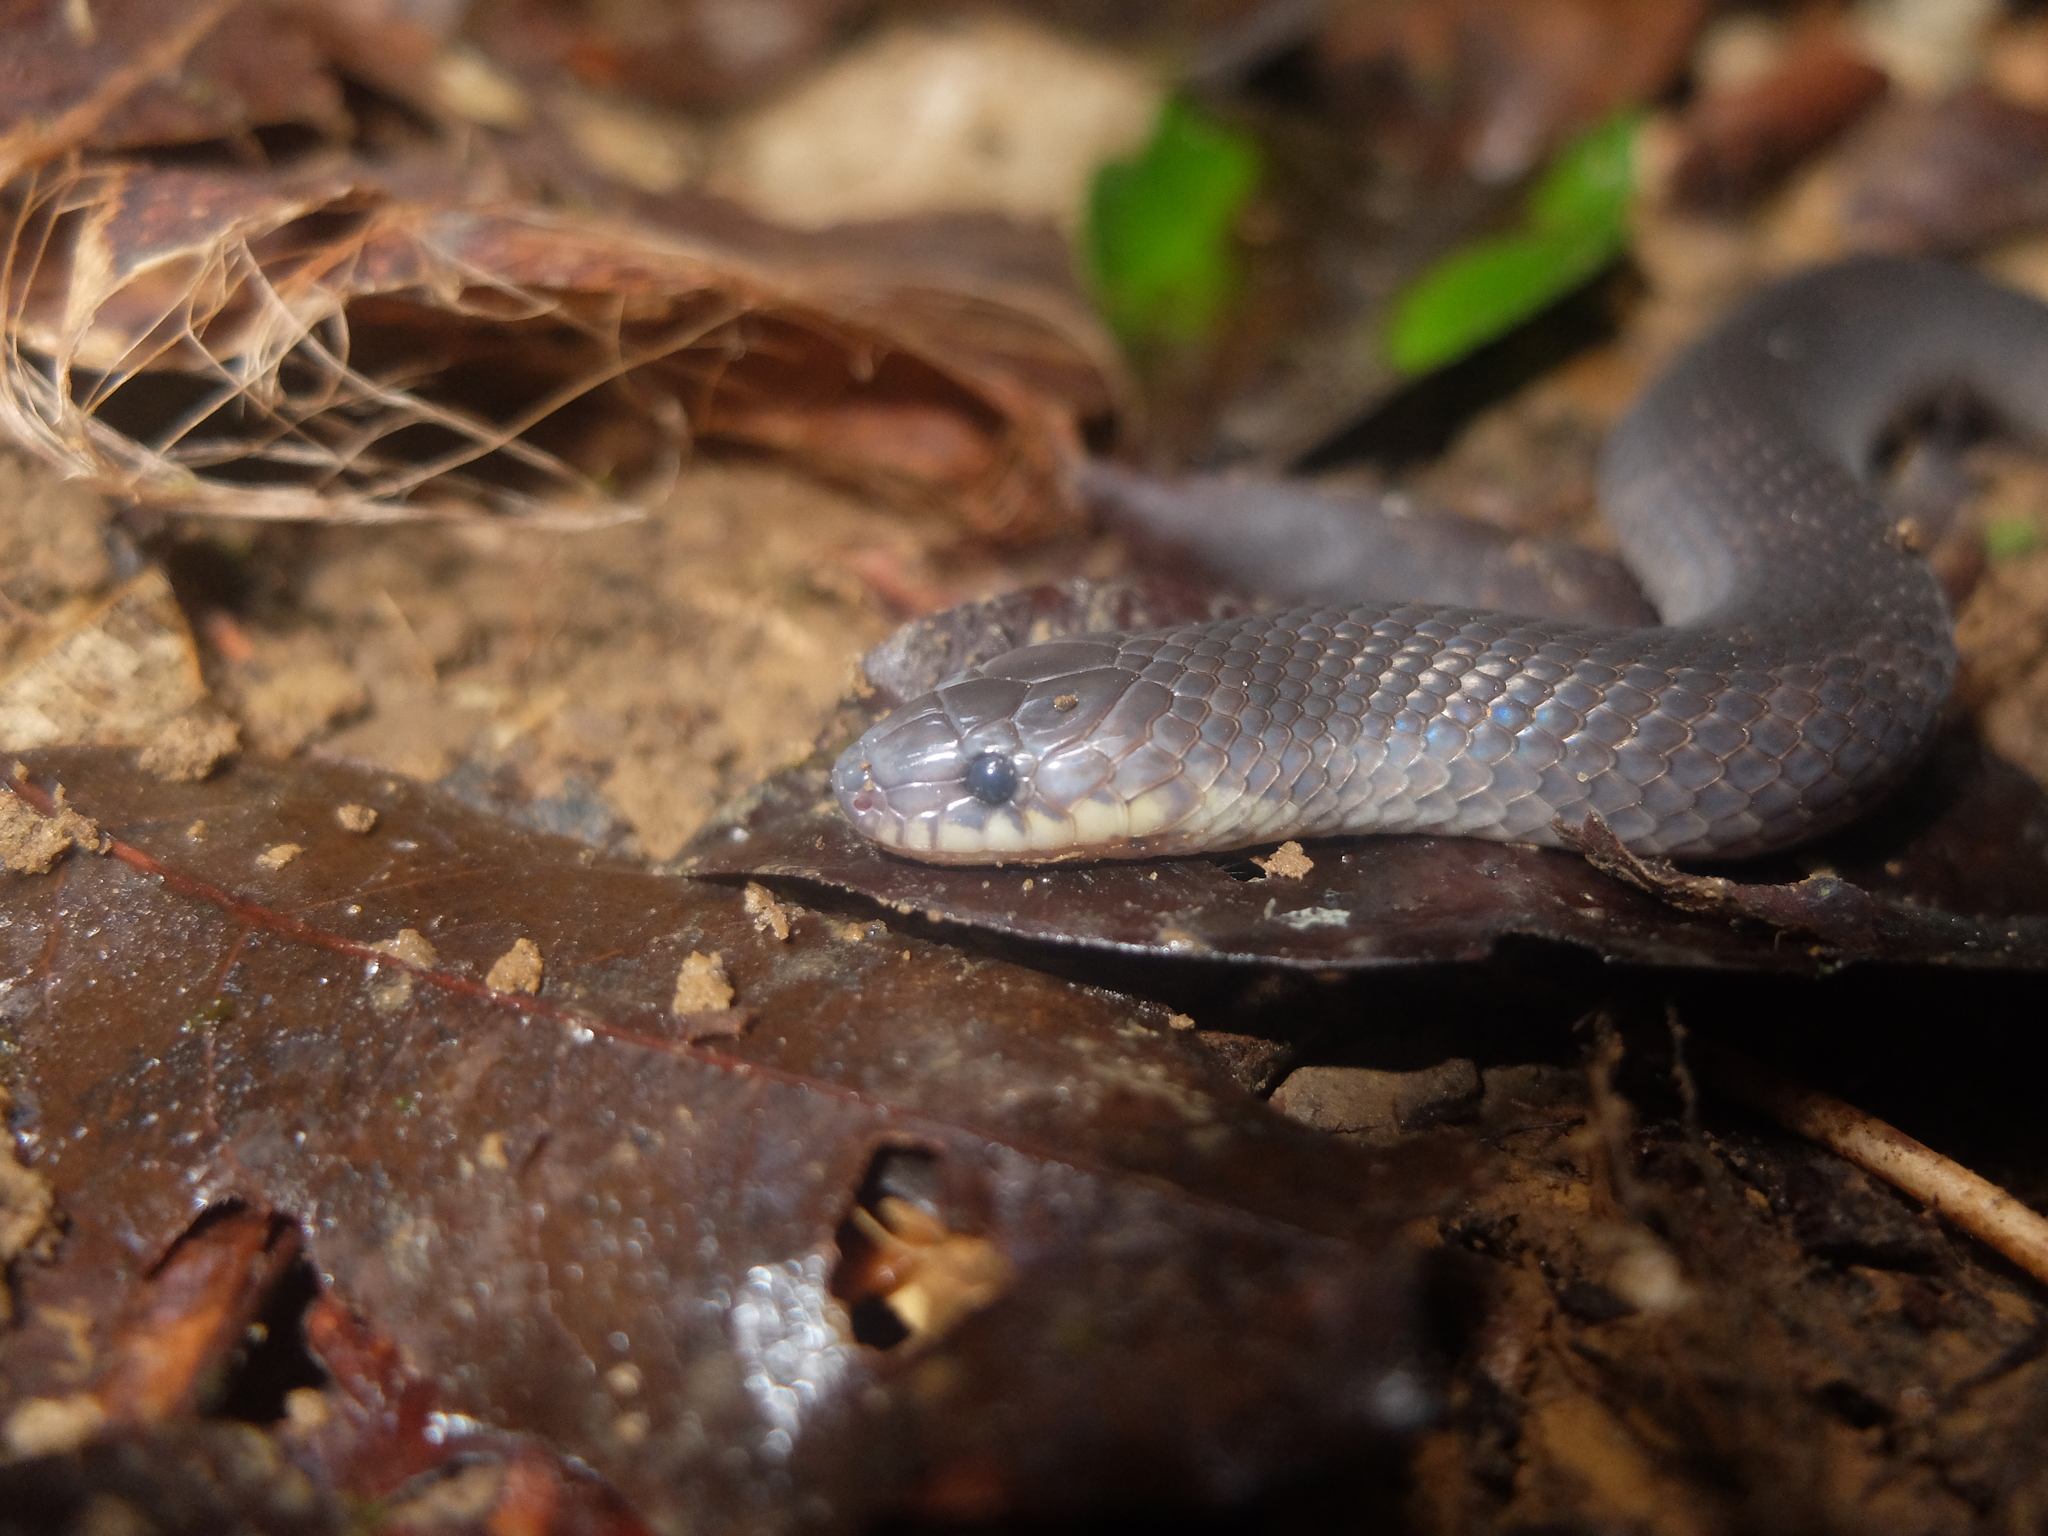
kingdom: Animalia
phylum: Chordata
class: Squamata
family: Colubridae
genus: Atractus
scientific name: Atractus flammigerus
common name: Flaming ground snake
